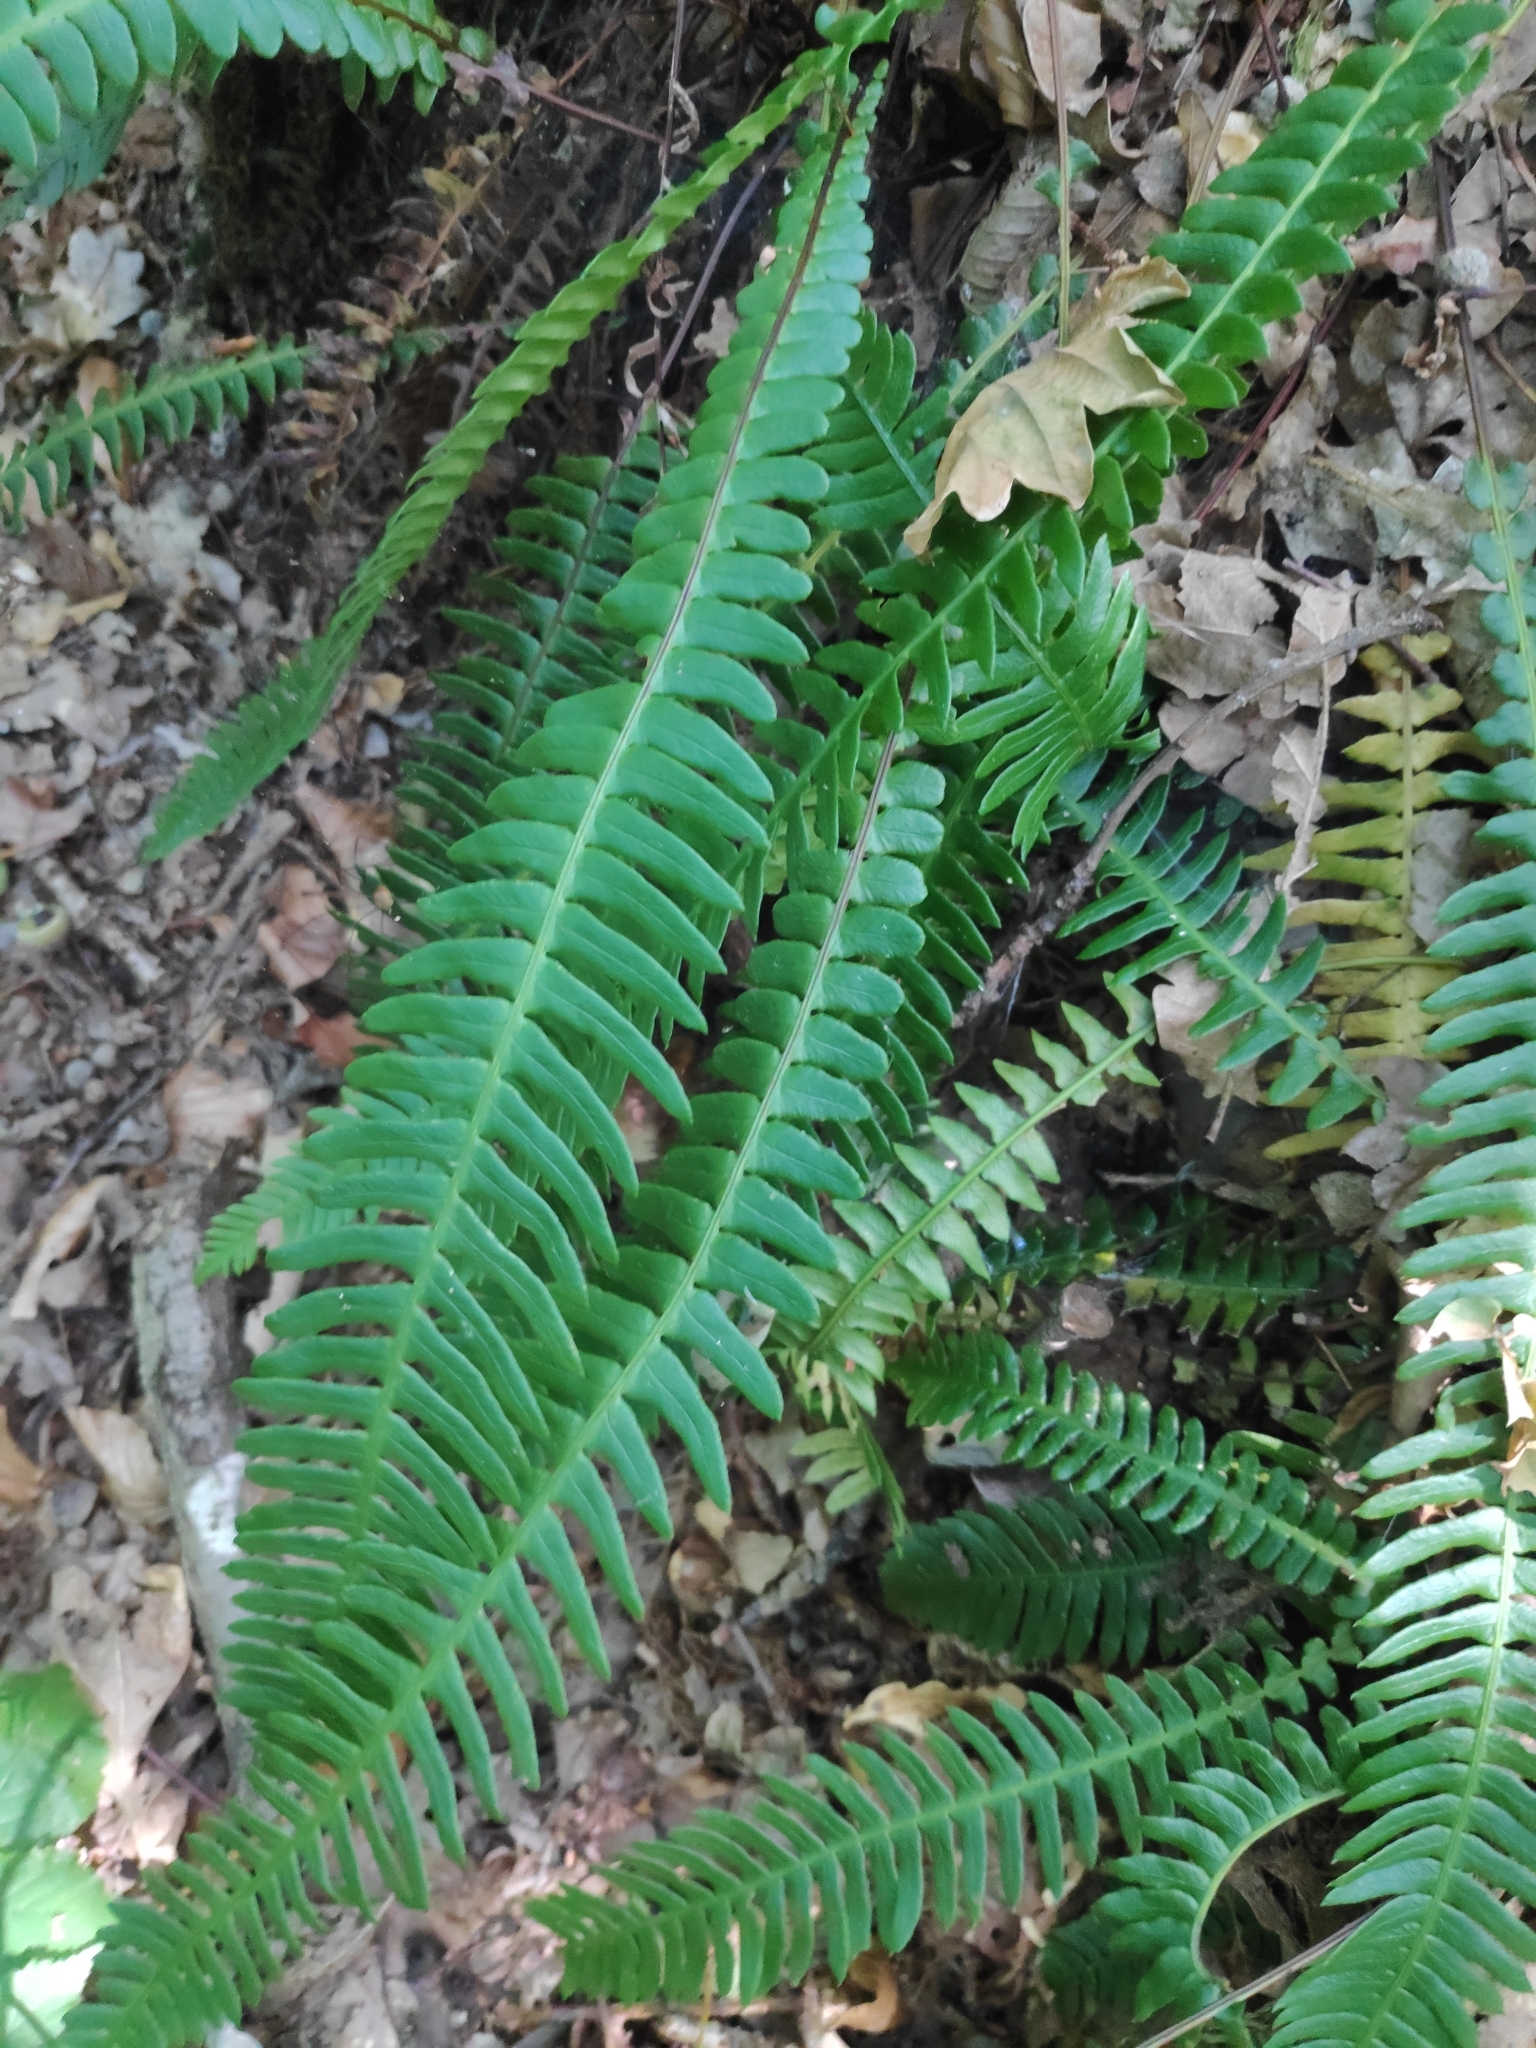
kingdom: Plantae
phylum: Tracheophyta
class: Polypodiopsida
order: Polypodiales
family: Blechnaceae
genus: Struthiopteris
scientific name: Struthiopteris spicant
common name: Deer fern
